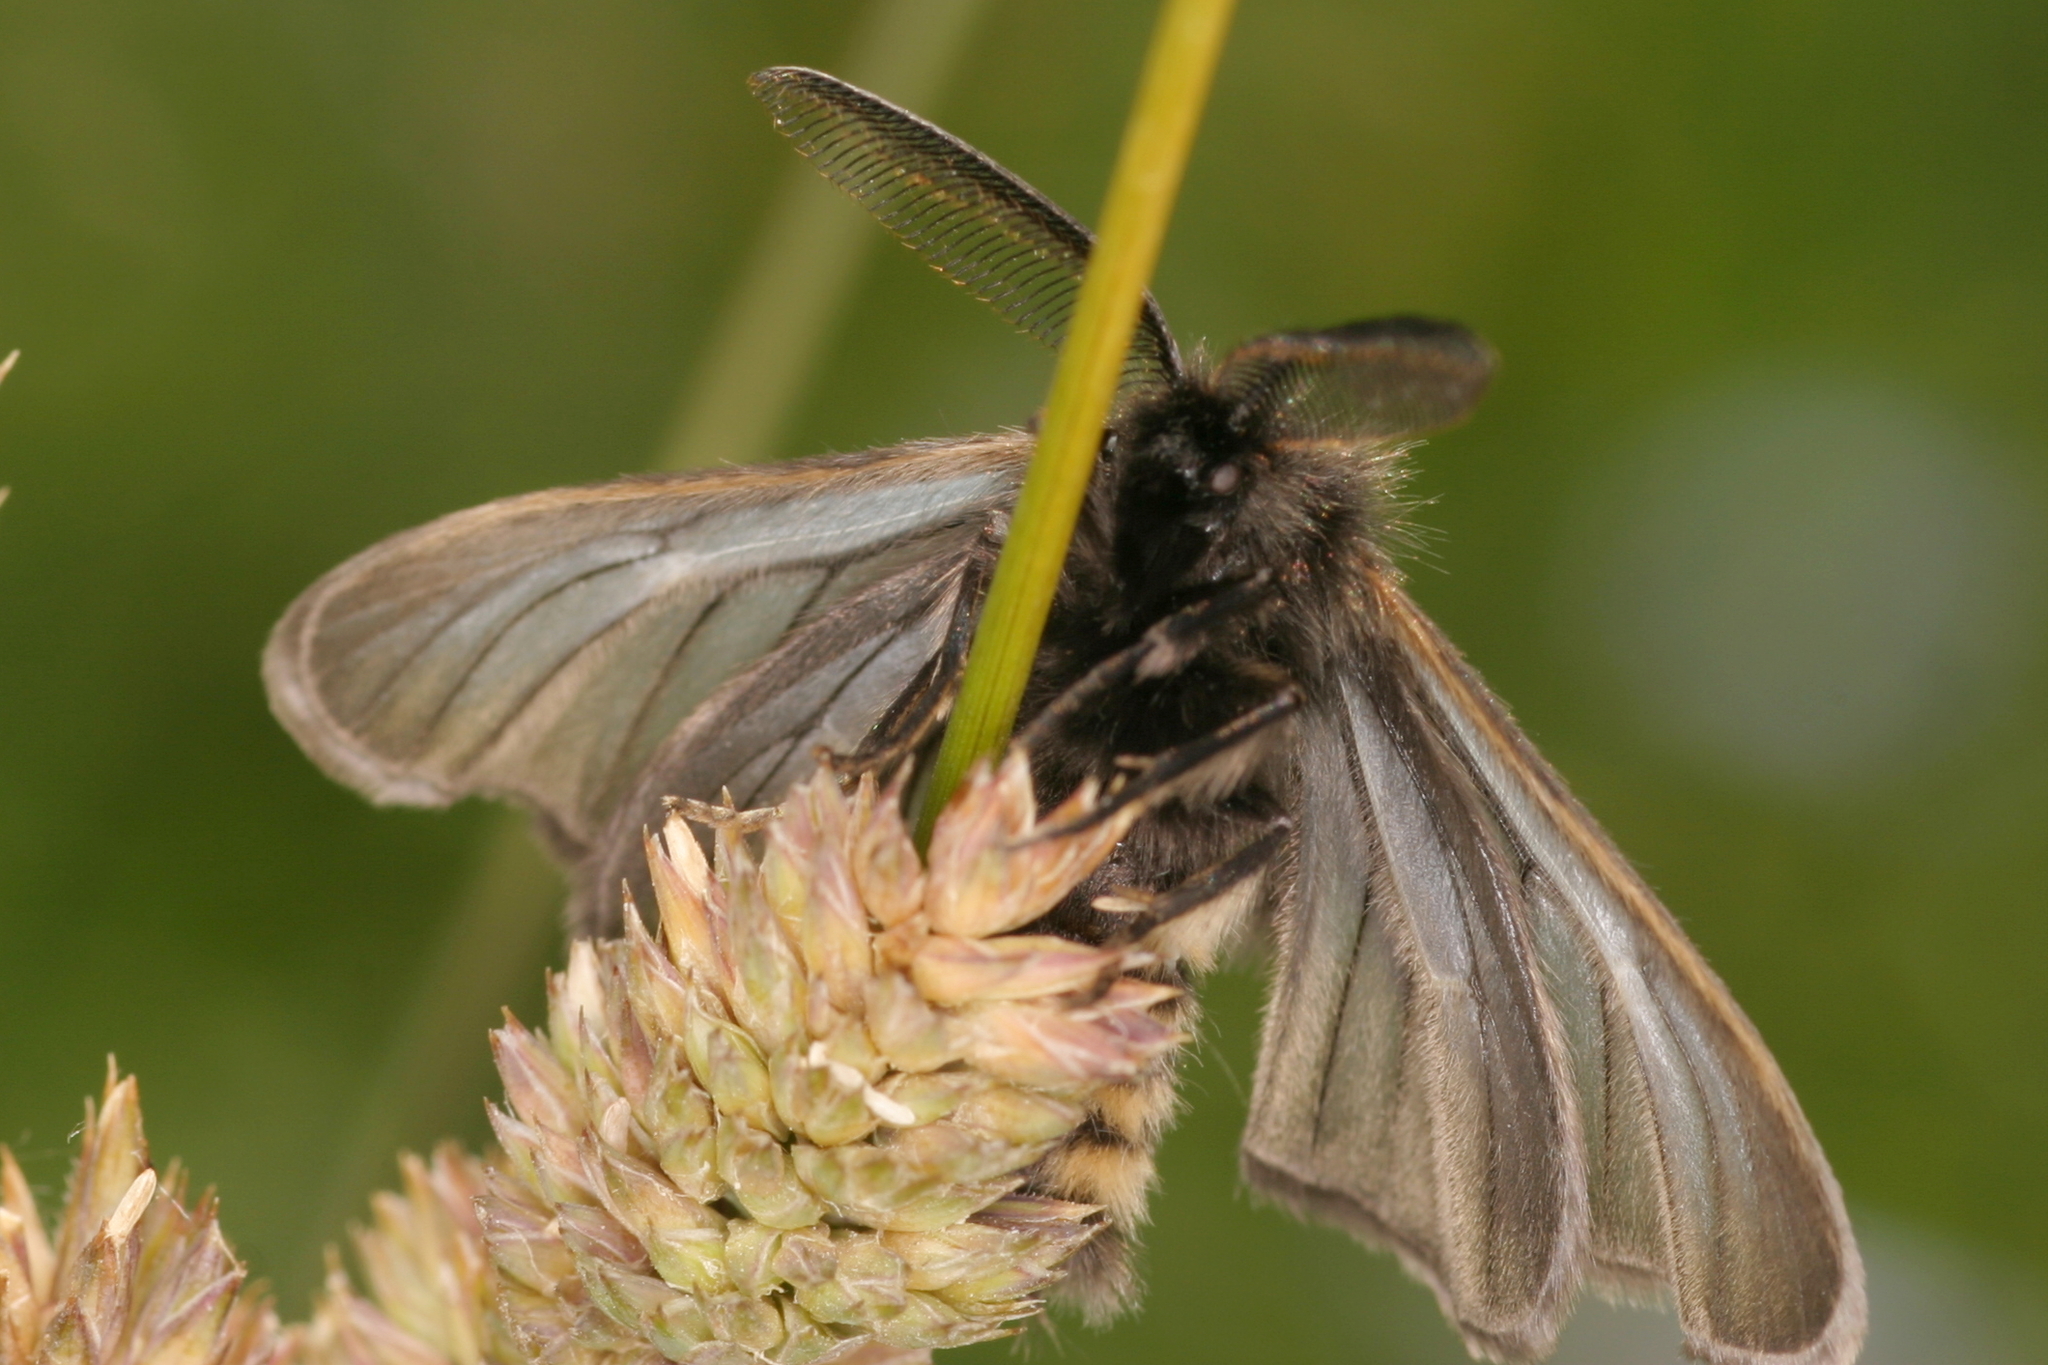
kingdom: Animalia
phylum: Arthropoda
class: Insecta
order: Lepidoptera
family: Erebidae
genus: Penthophera
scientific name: Penthophera morio
